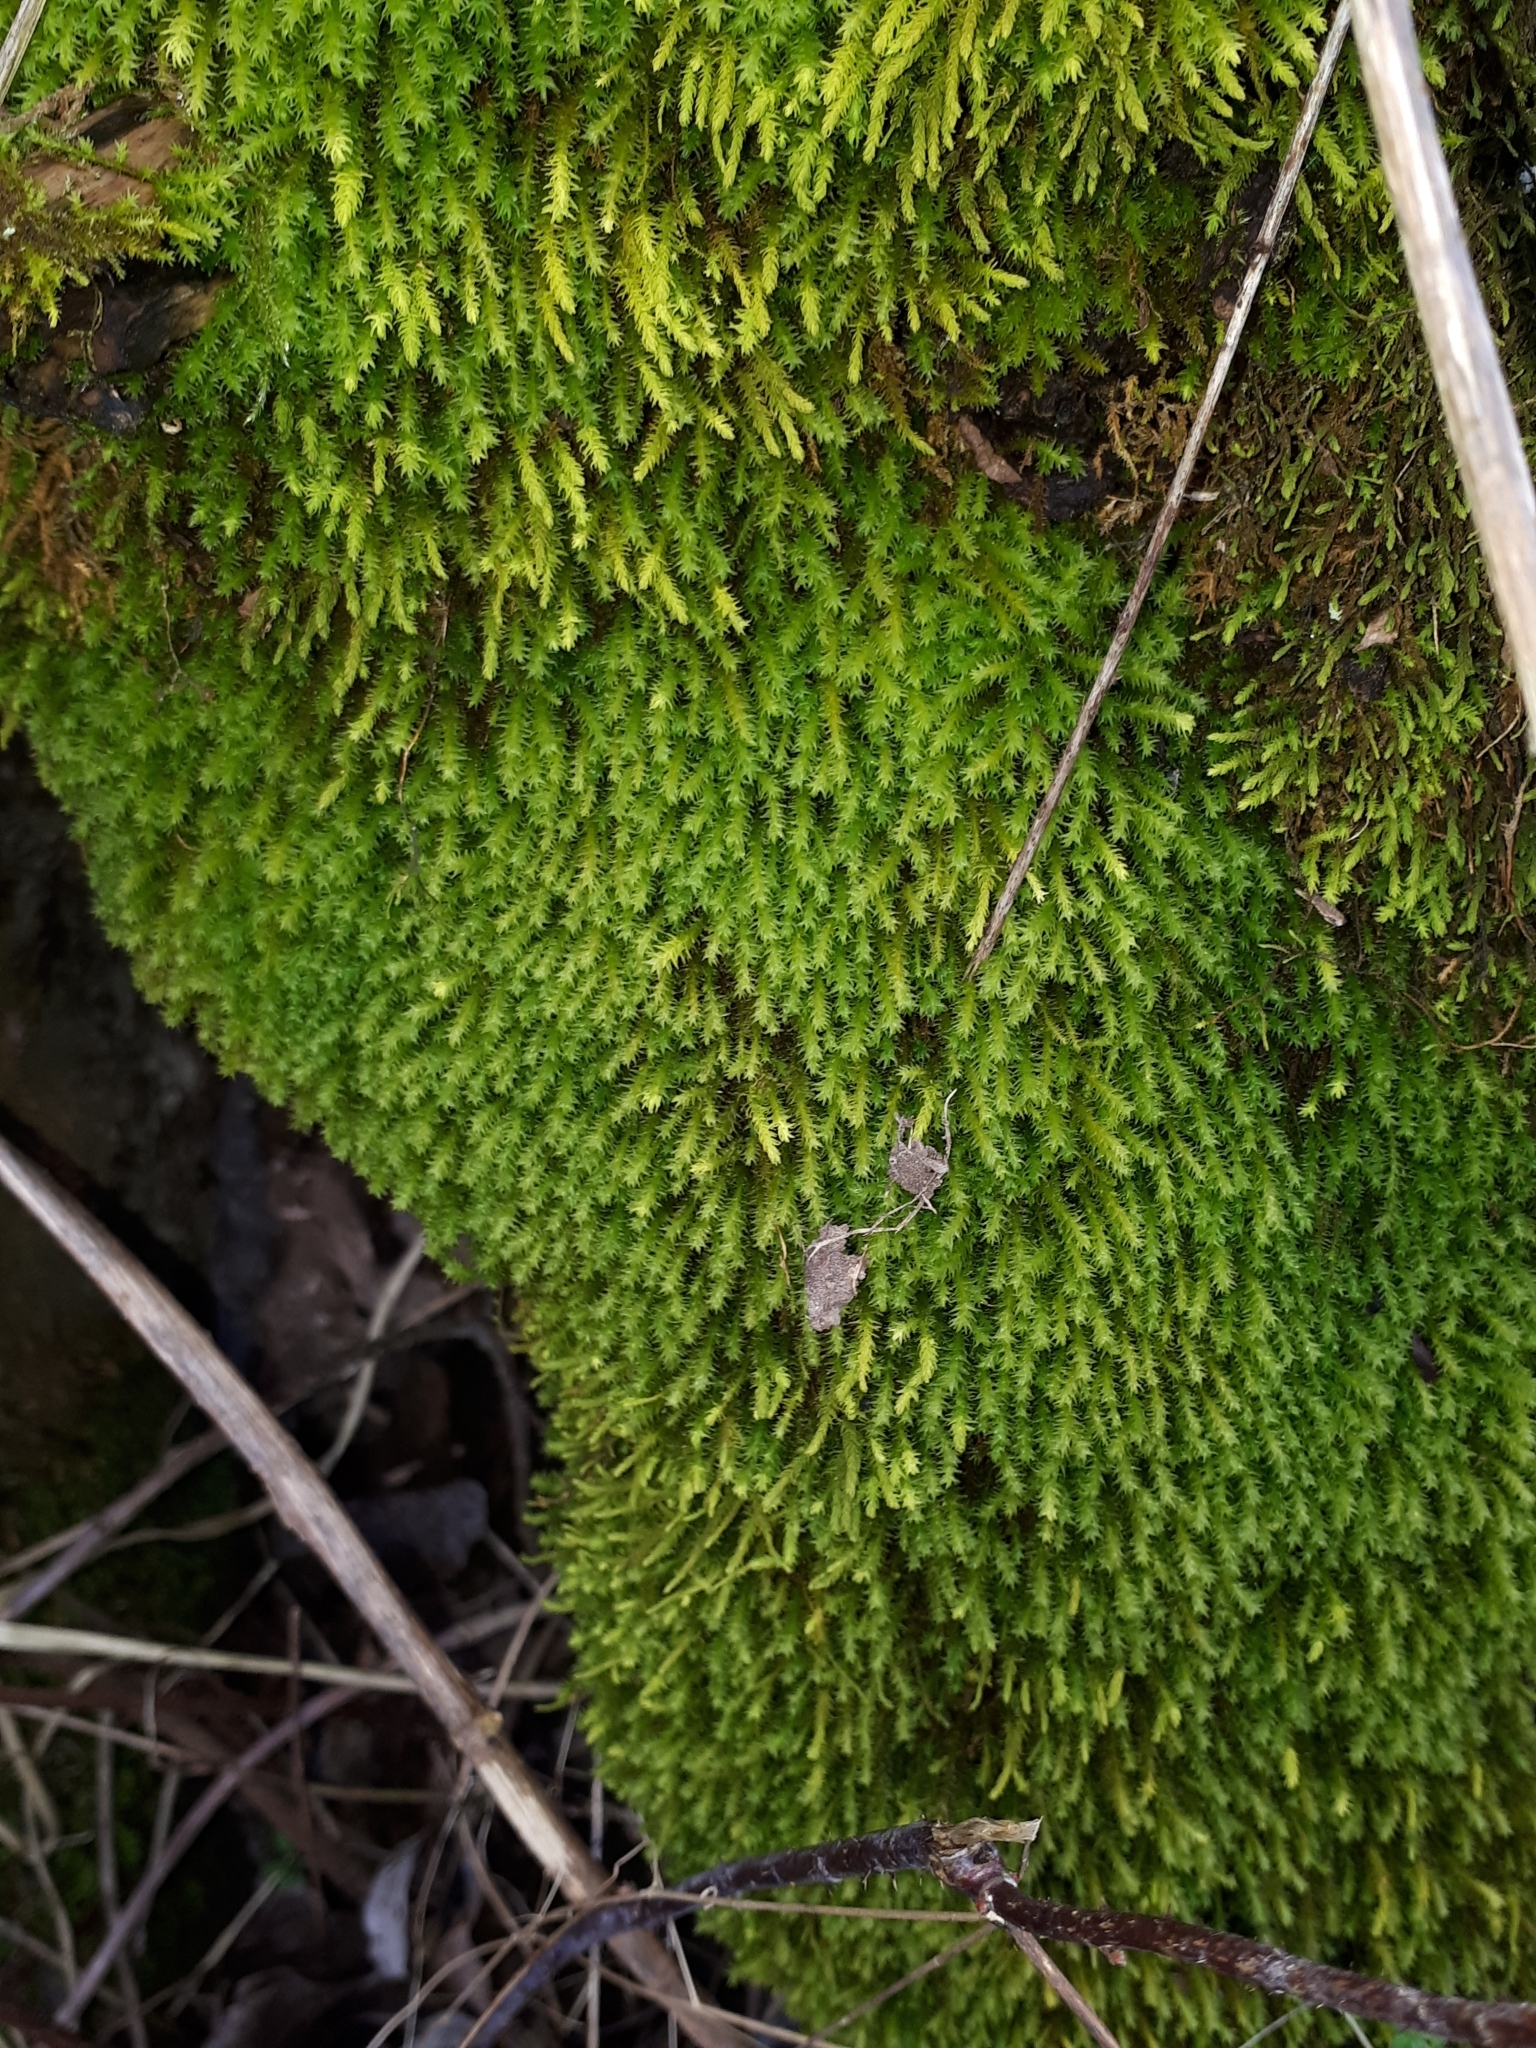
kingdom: Plantae
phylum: Bryophyta
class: Bryopsida
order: Hypnales
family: Anomodontaceae
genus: Anomodon
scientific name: Anomodon viticulosus
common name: Tall anomodon
